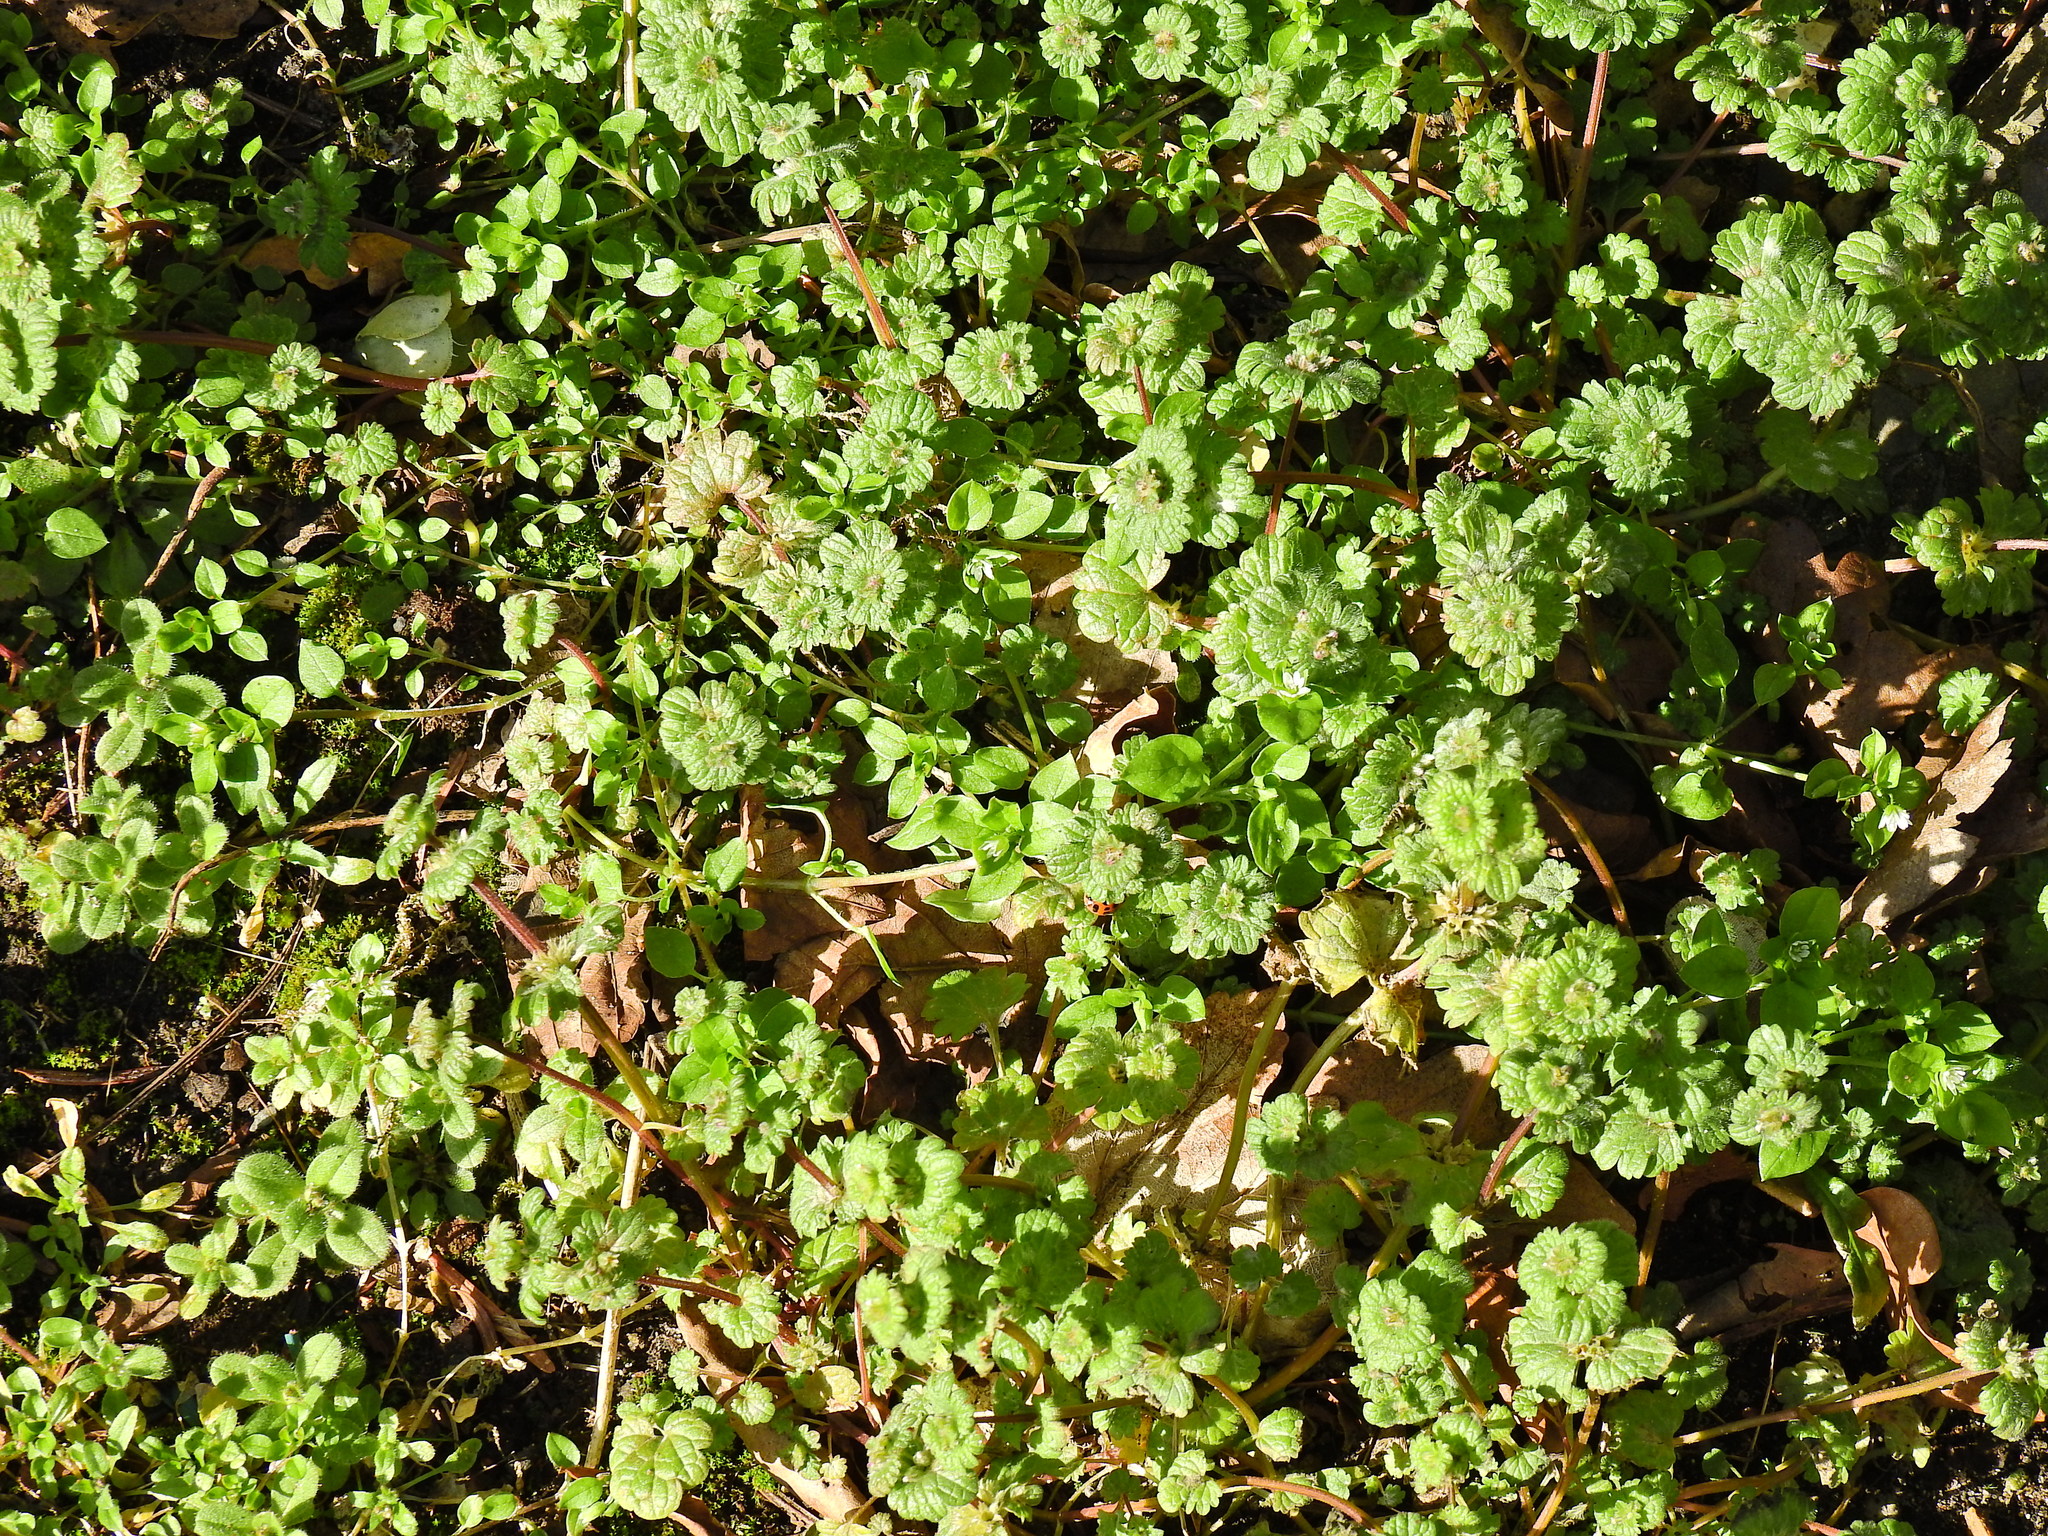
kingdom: Plantae
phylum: Tracheophyta
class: Magnoliopsida
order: Lamiales
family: Lamiaceae
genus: Lamium
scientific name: Lamium amplexicaule
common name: Henbit dead-nettle
